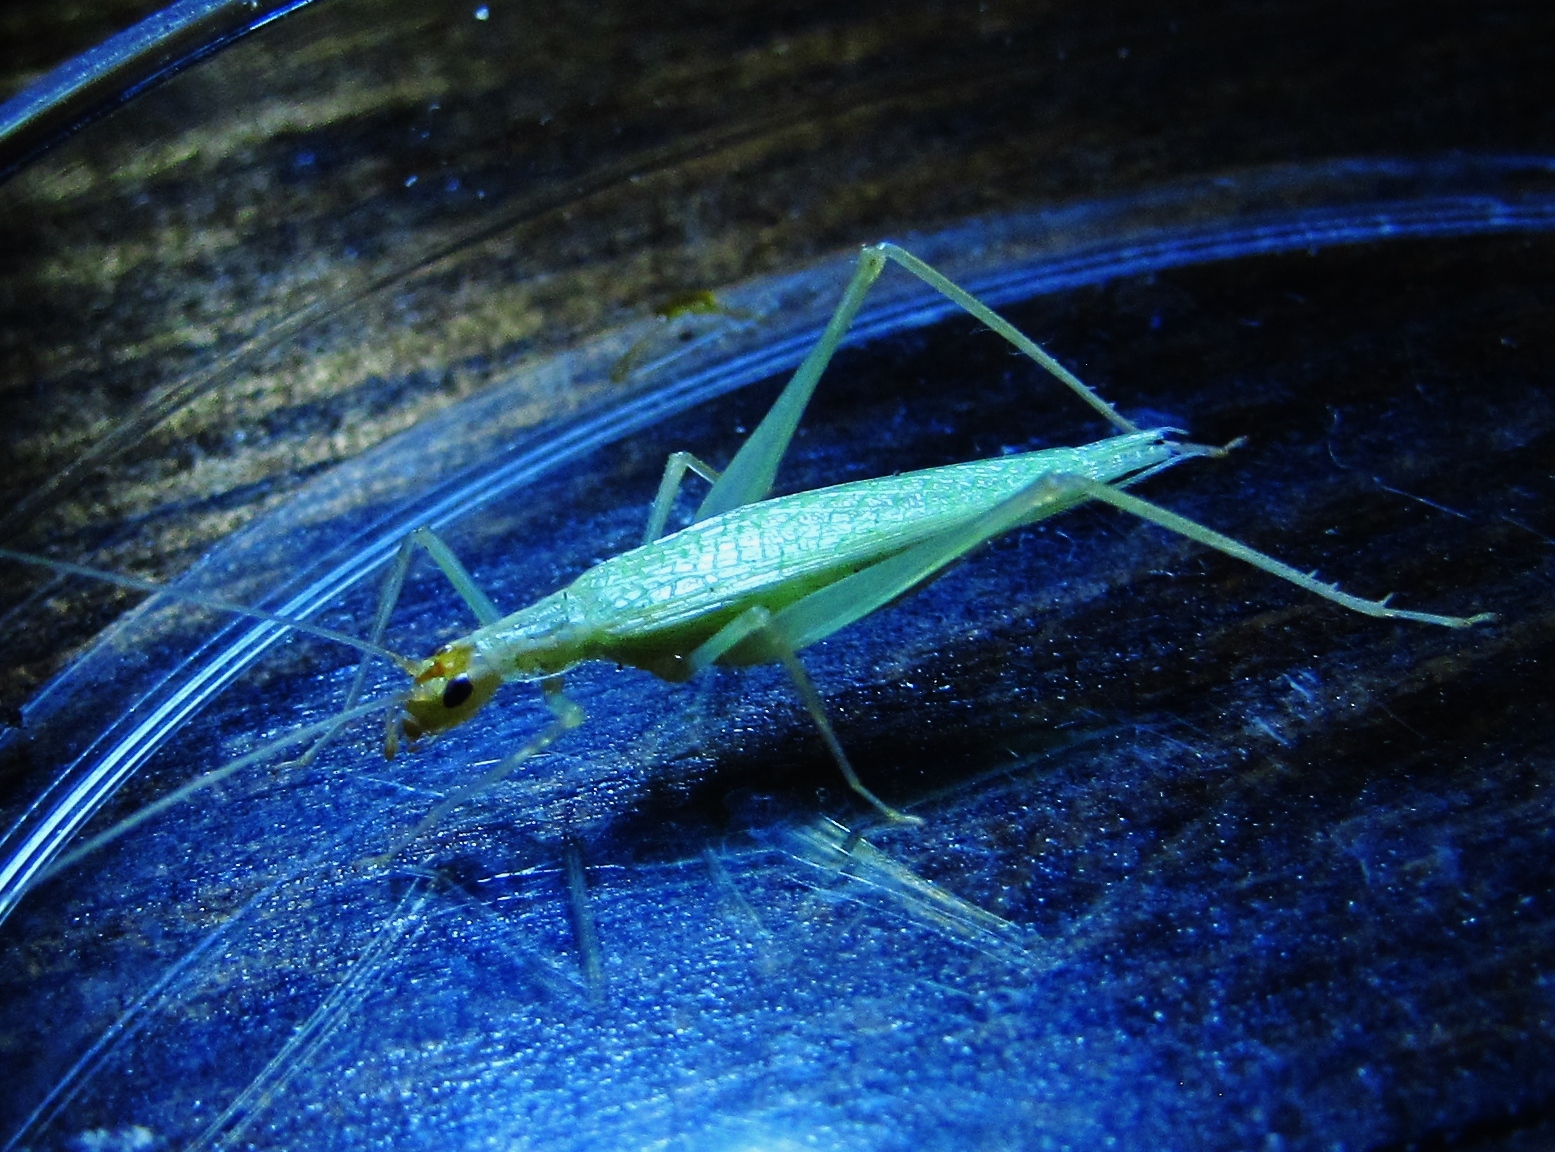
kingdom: Animalia
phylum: Arthropoda
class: Insecta
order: Orthoptera
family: Gryllidae
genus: Oecanthus
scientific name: Oecanthus niveus
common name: Narrow-winged tree cricket
